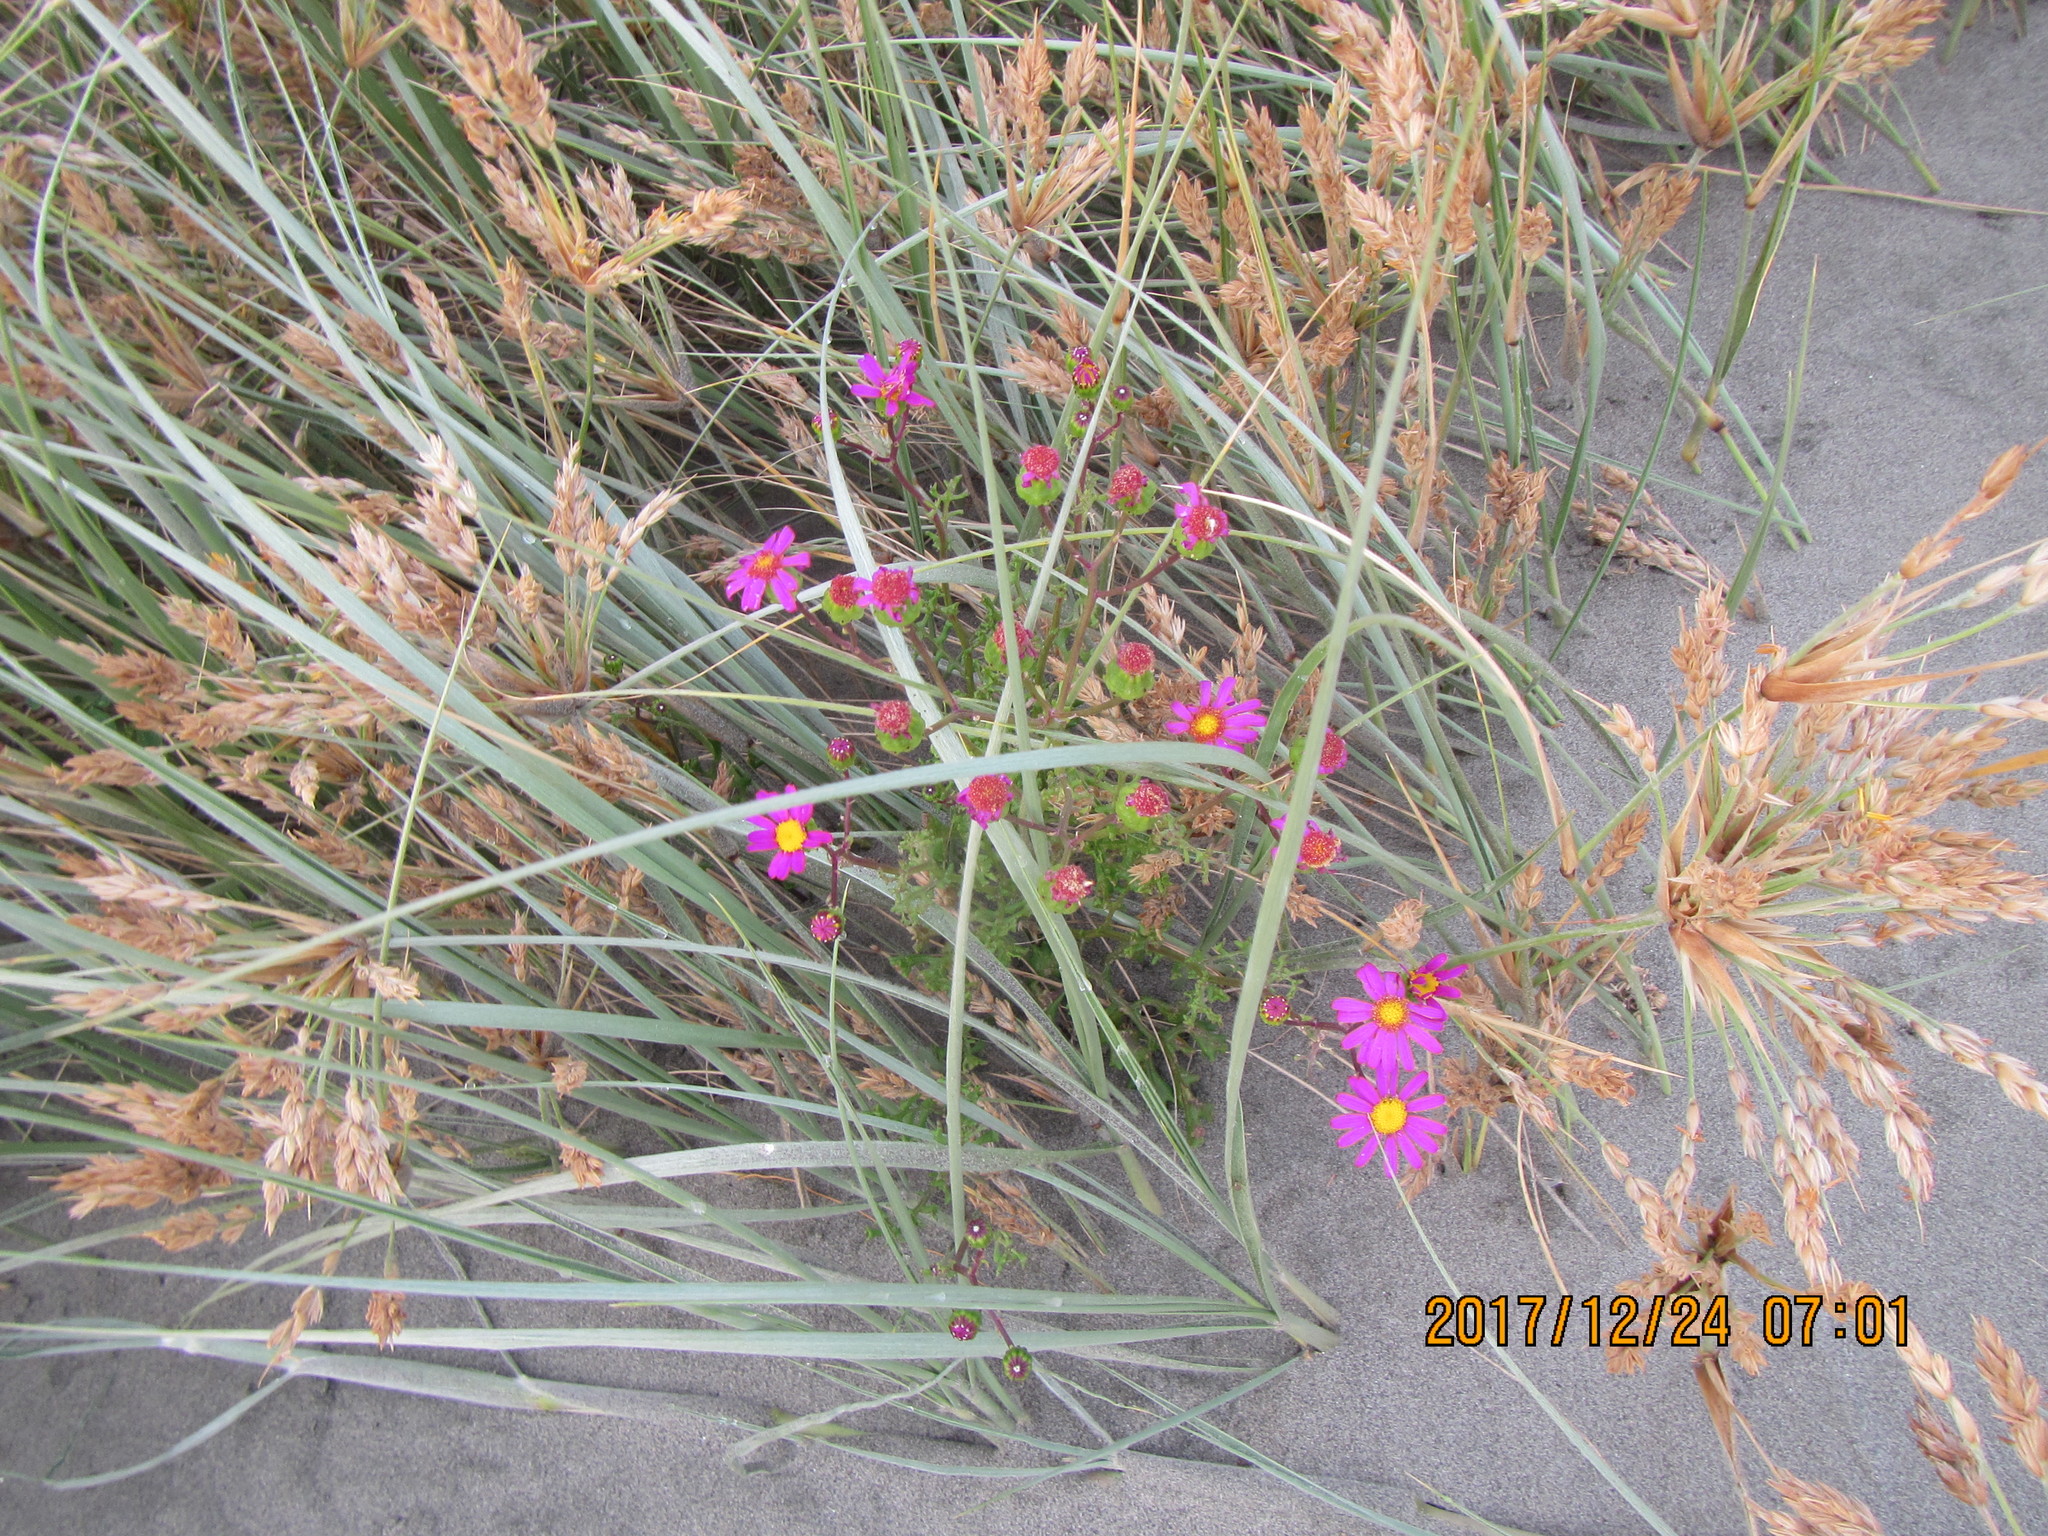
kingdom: Plantae
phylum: Tracheophyta
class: Magnoliopsida
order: Asterales
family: Asteraceae
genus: Senecio
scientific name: Senecio elegans
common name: Purple groundsel
